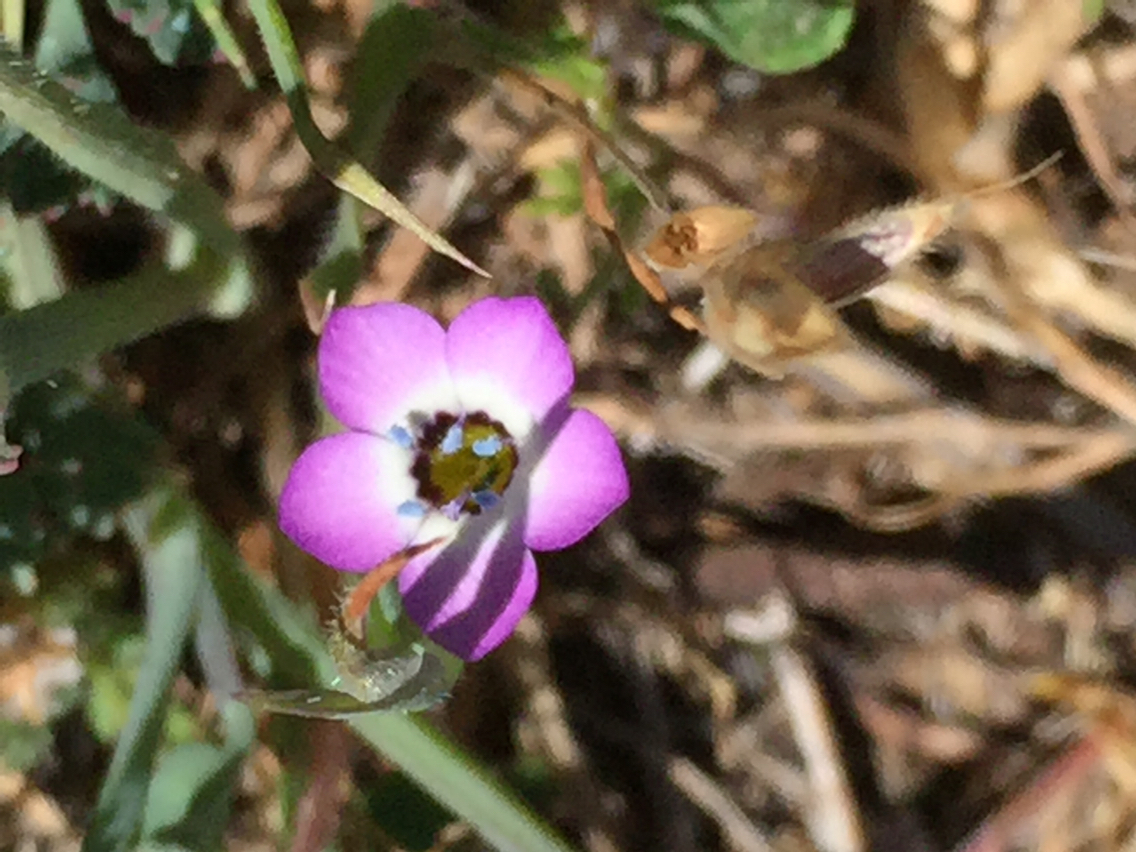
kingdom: Plantae
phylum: Tracheophyta
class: Magnoliopsida
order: Ericales
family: Polemoniaceae
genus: Gilia
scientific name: Gilia tricolor
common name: Bird's-eyes
